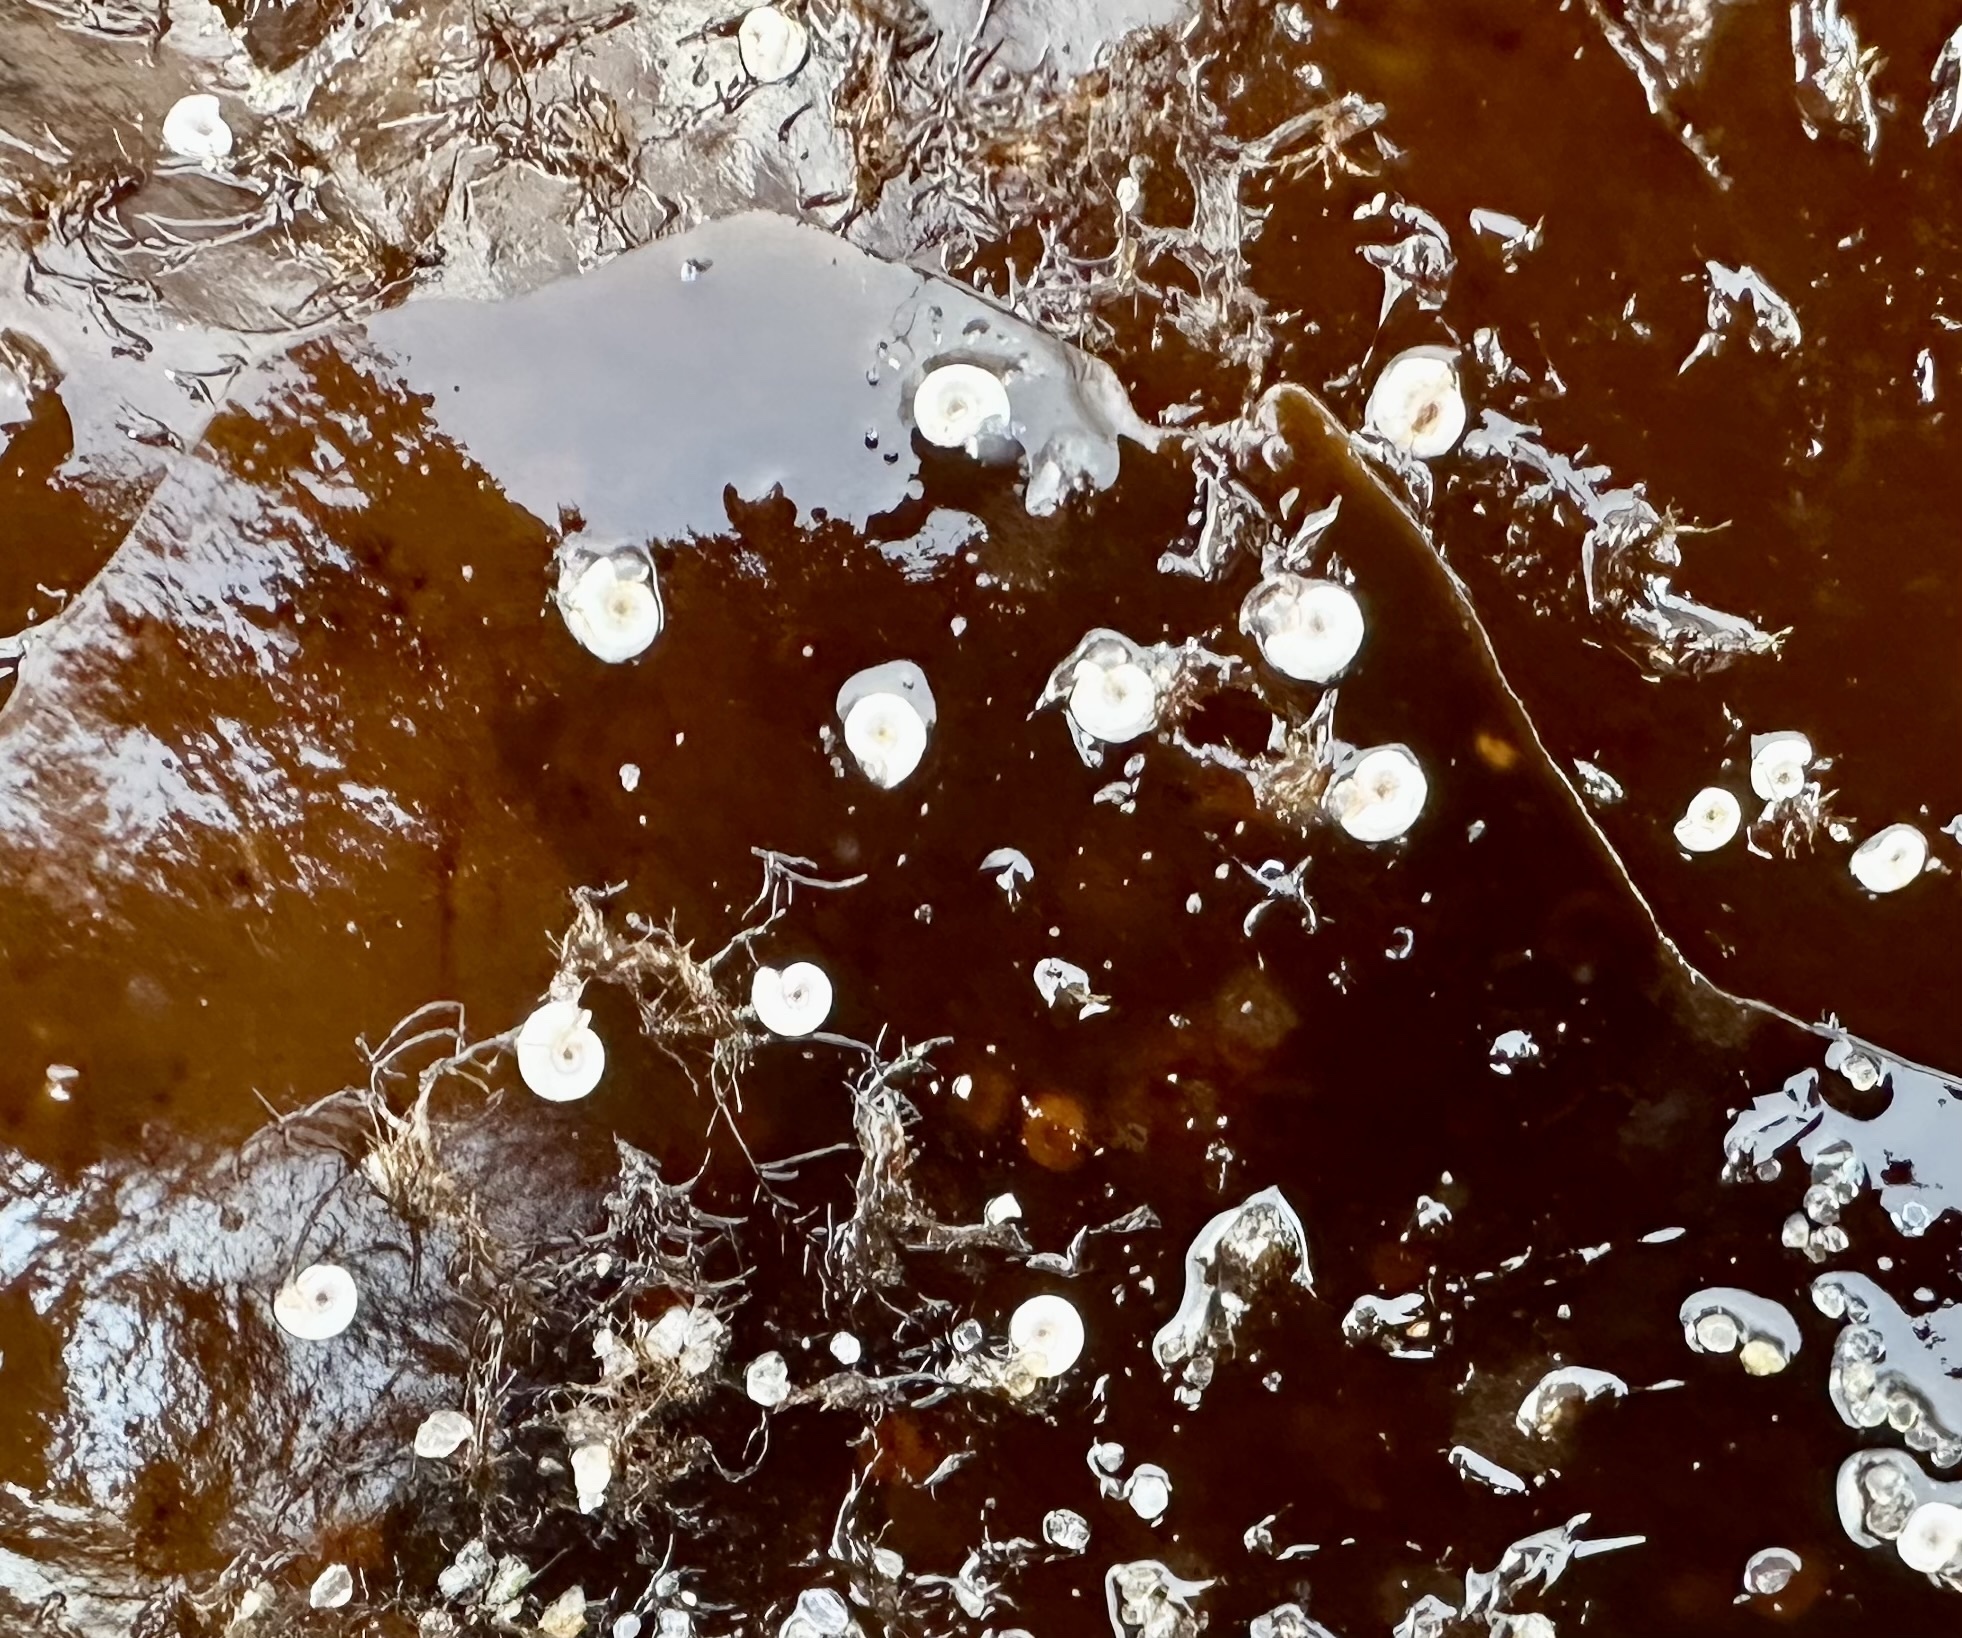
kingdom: Animalia
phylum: Annelida
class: Polychaeta
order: Sabellida
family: Serpulidae
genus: Spirorbis
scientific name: Spirorbis spirorbis
